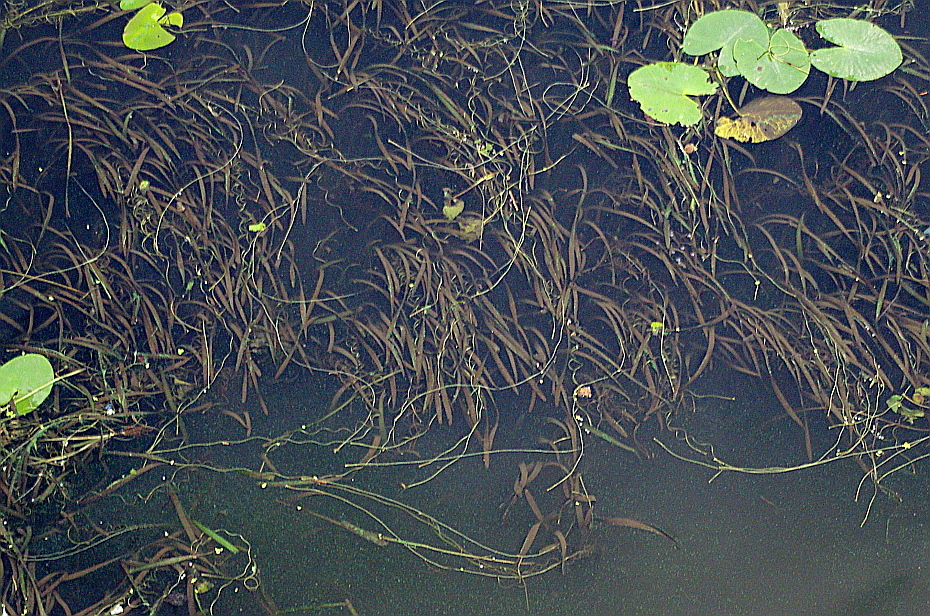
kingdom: Plantae
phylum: Tracheophyta
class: Liliopsida
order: Alismatales
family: Hydrocharitaceae
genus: Vallisneria
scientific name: Vallisneria spiralis
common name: Tapegrass
